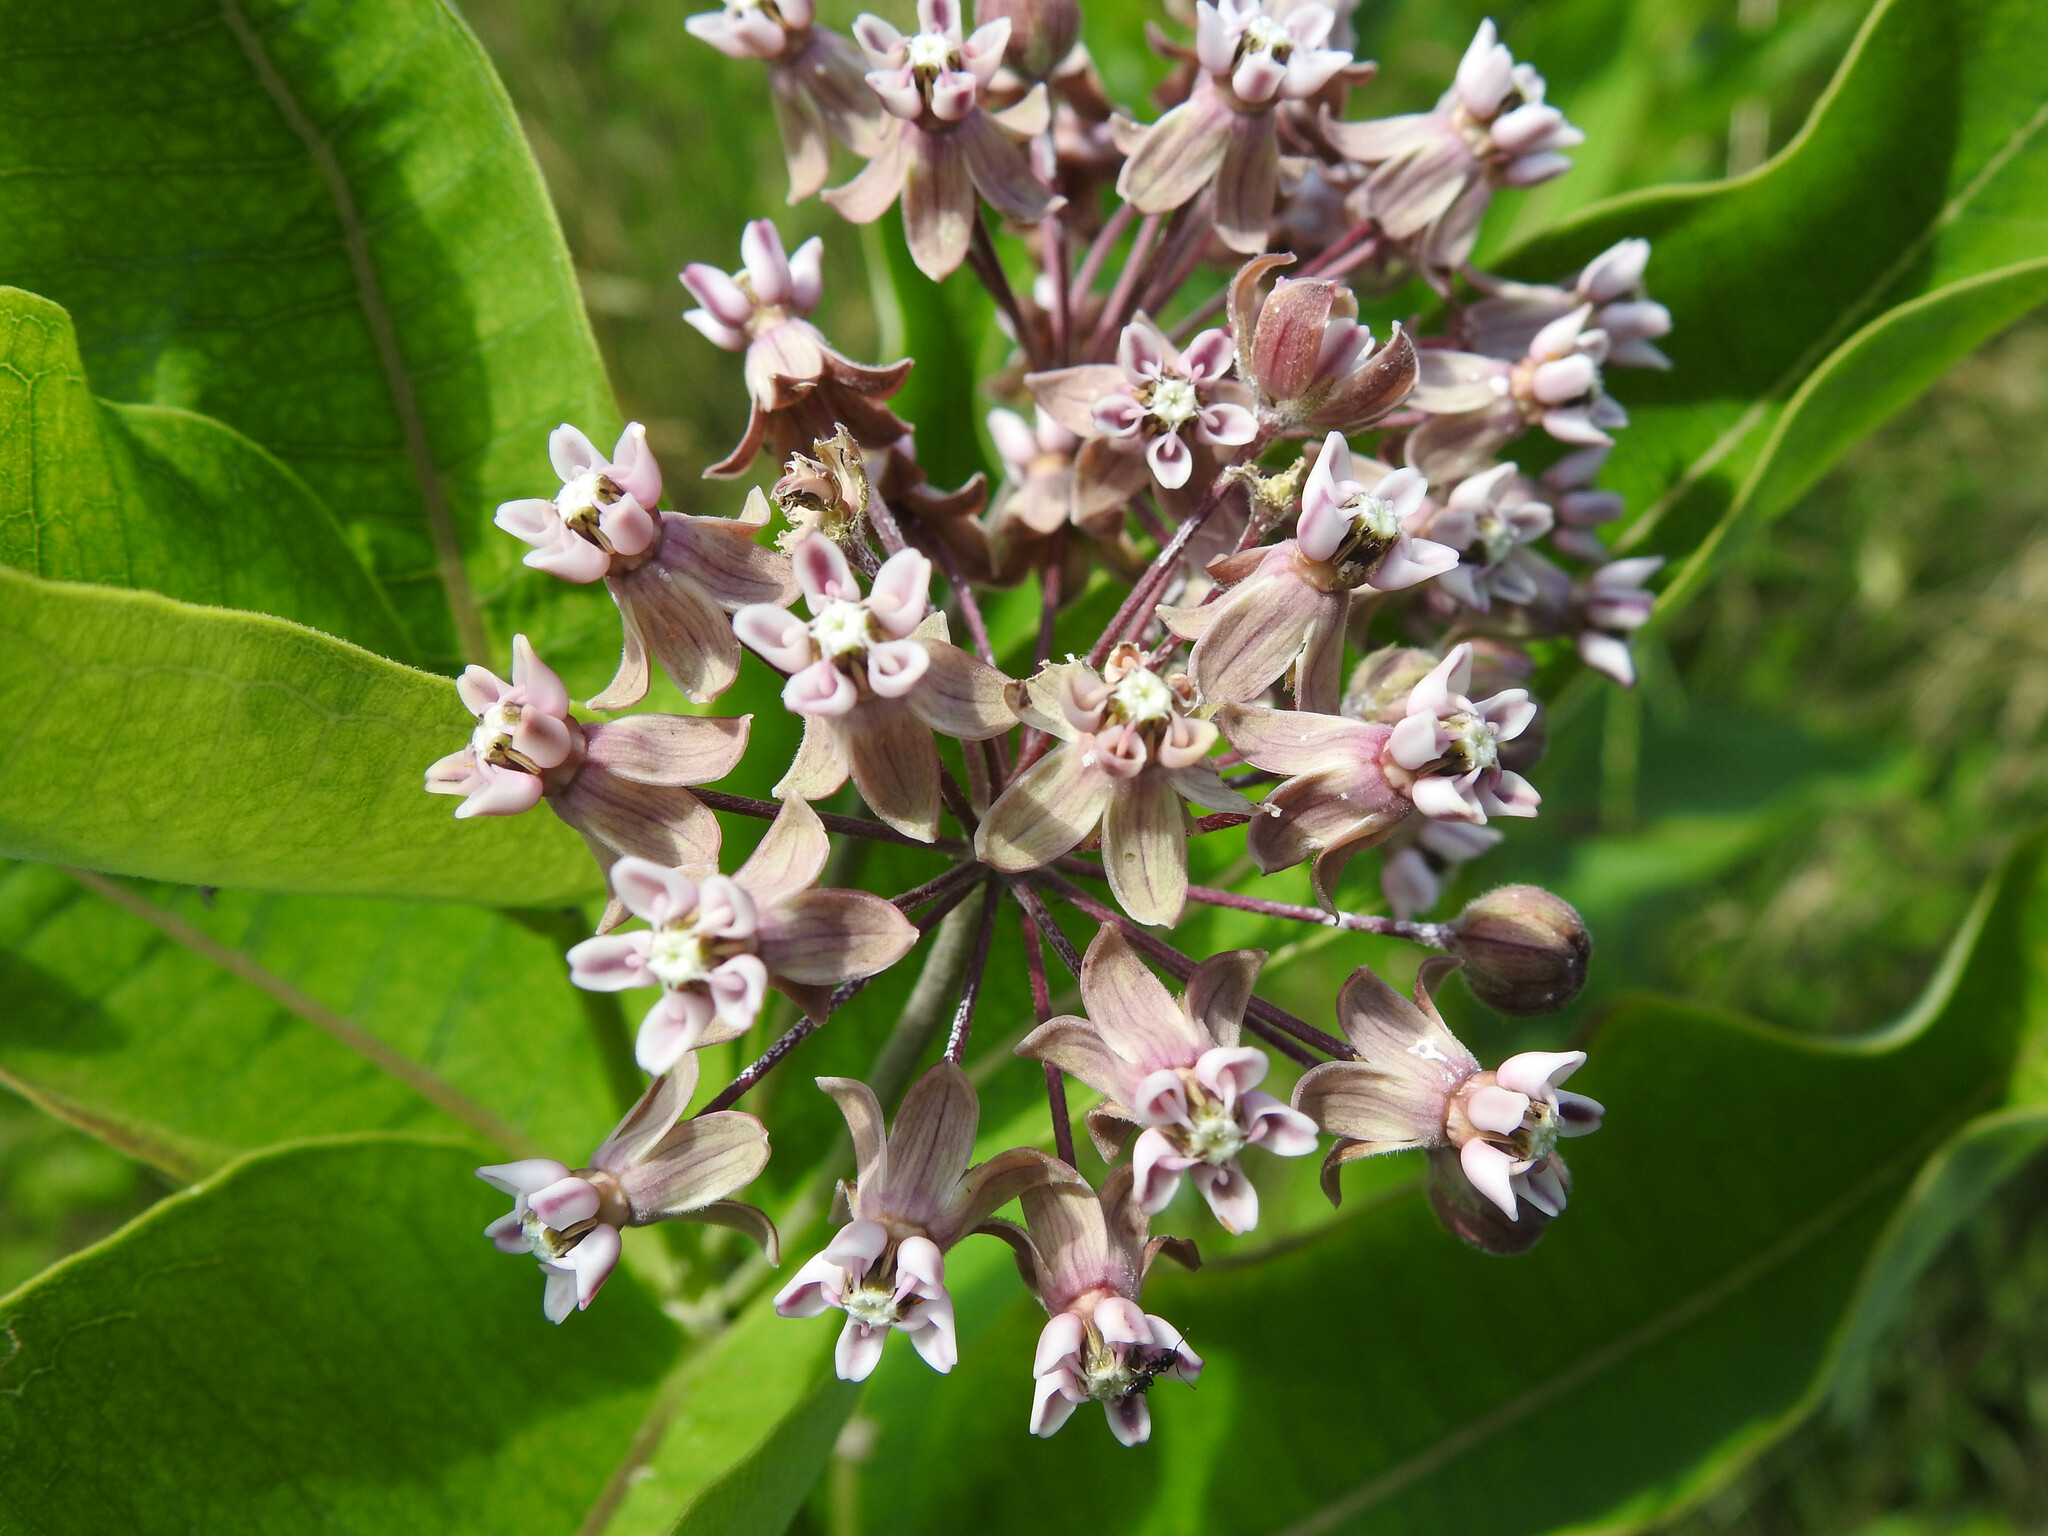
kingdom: Plantae
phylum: Tracheophyta
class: Magnoliopsida
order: Gentianales
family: Apocynaceae
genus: Asclepias
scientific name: Asclepias syriaca
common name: Common milkweed
